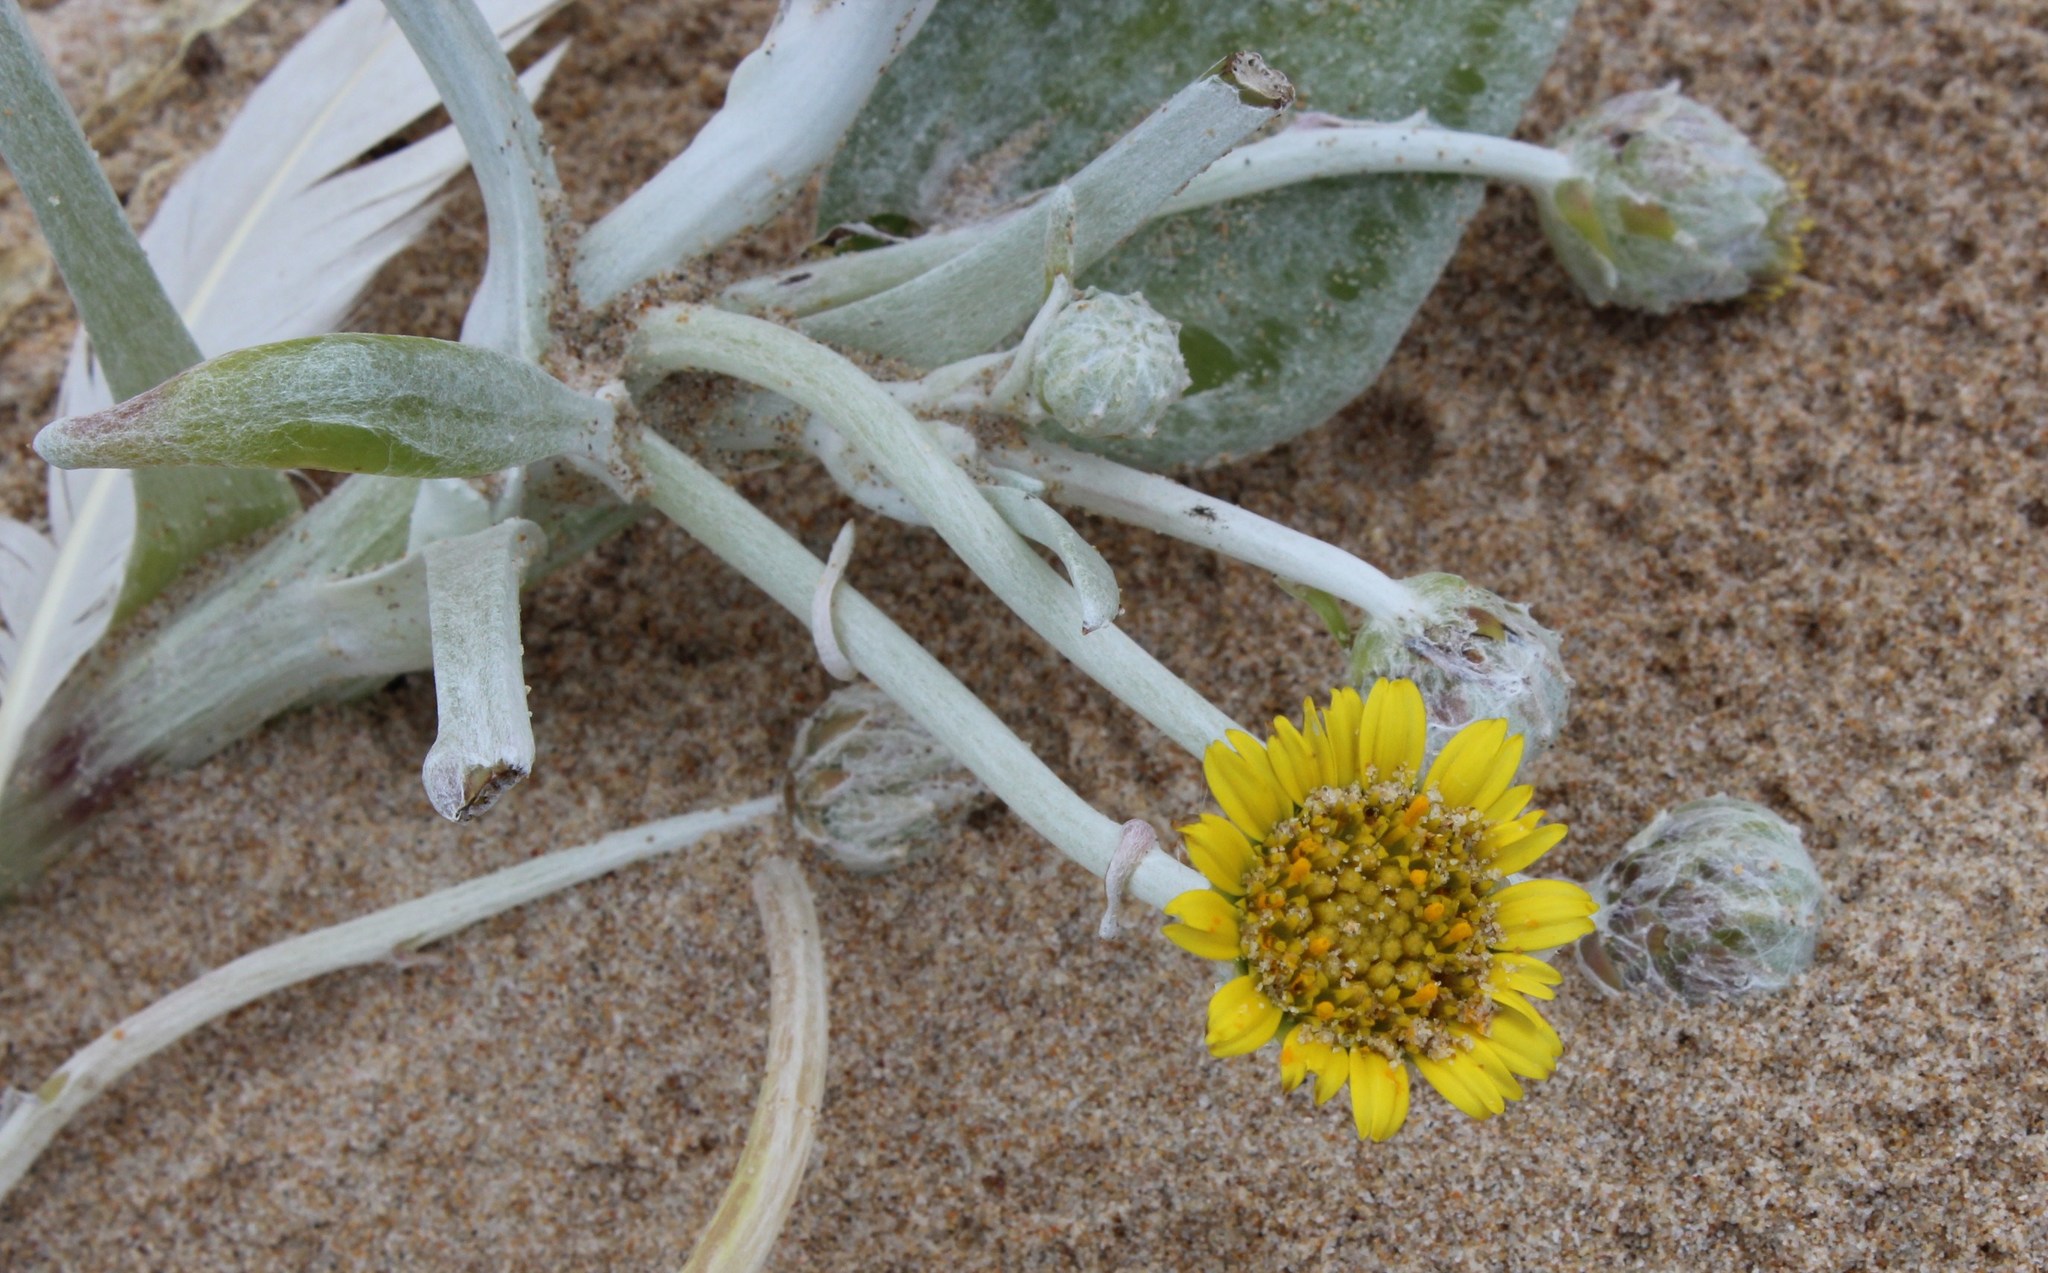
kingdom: Plantae
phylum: Tracheophyta
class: Magnoliopsida
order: Asterales
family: Asteraceae
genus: Arctotheca
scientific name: Arctotheca populifolia
